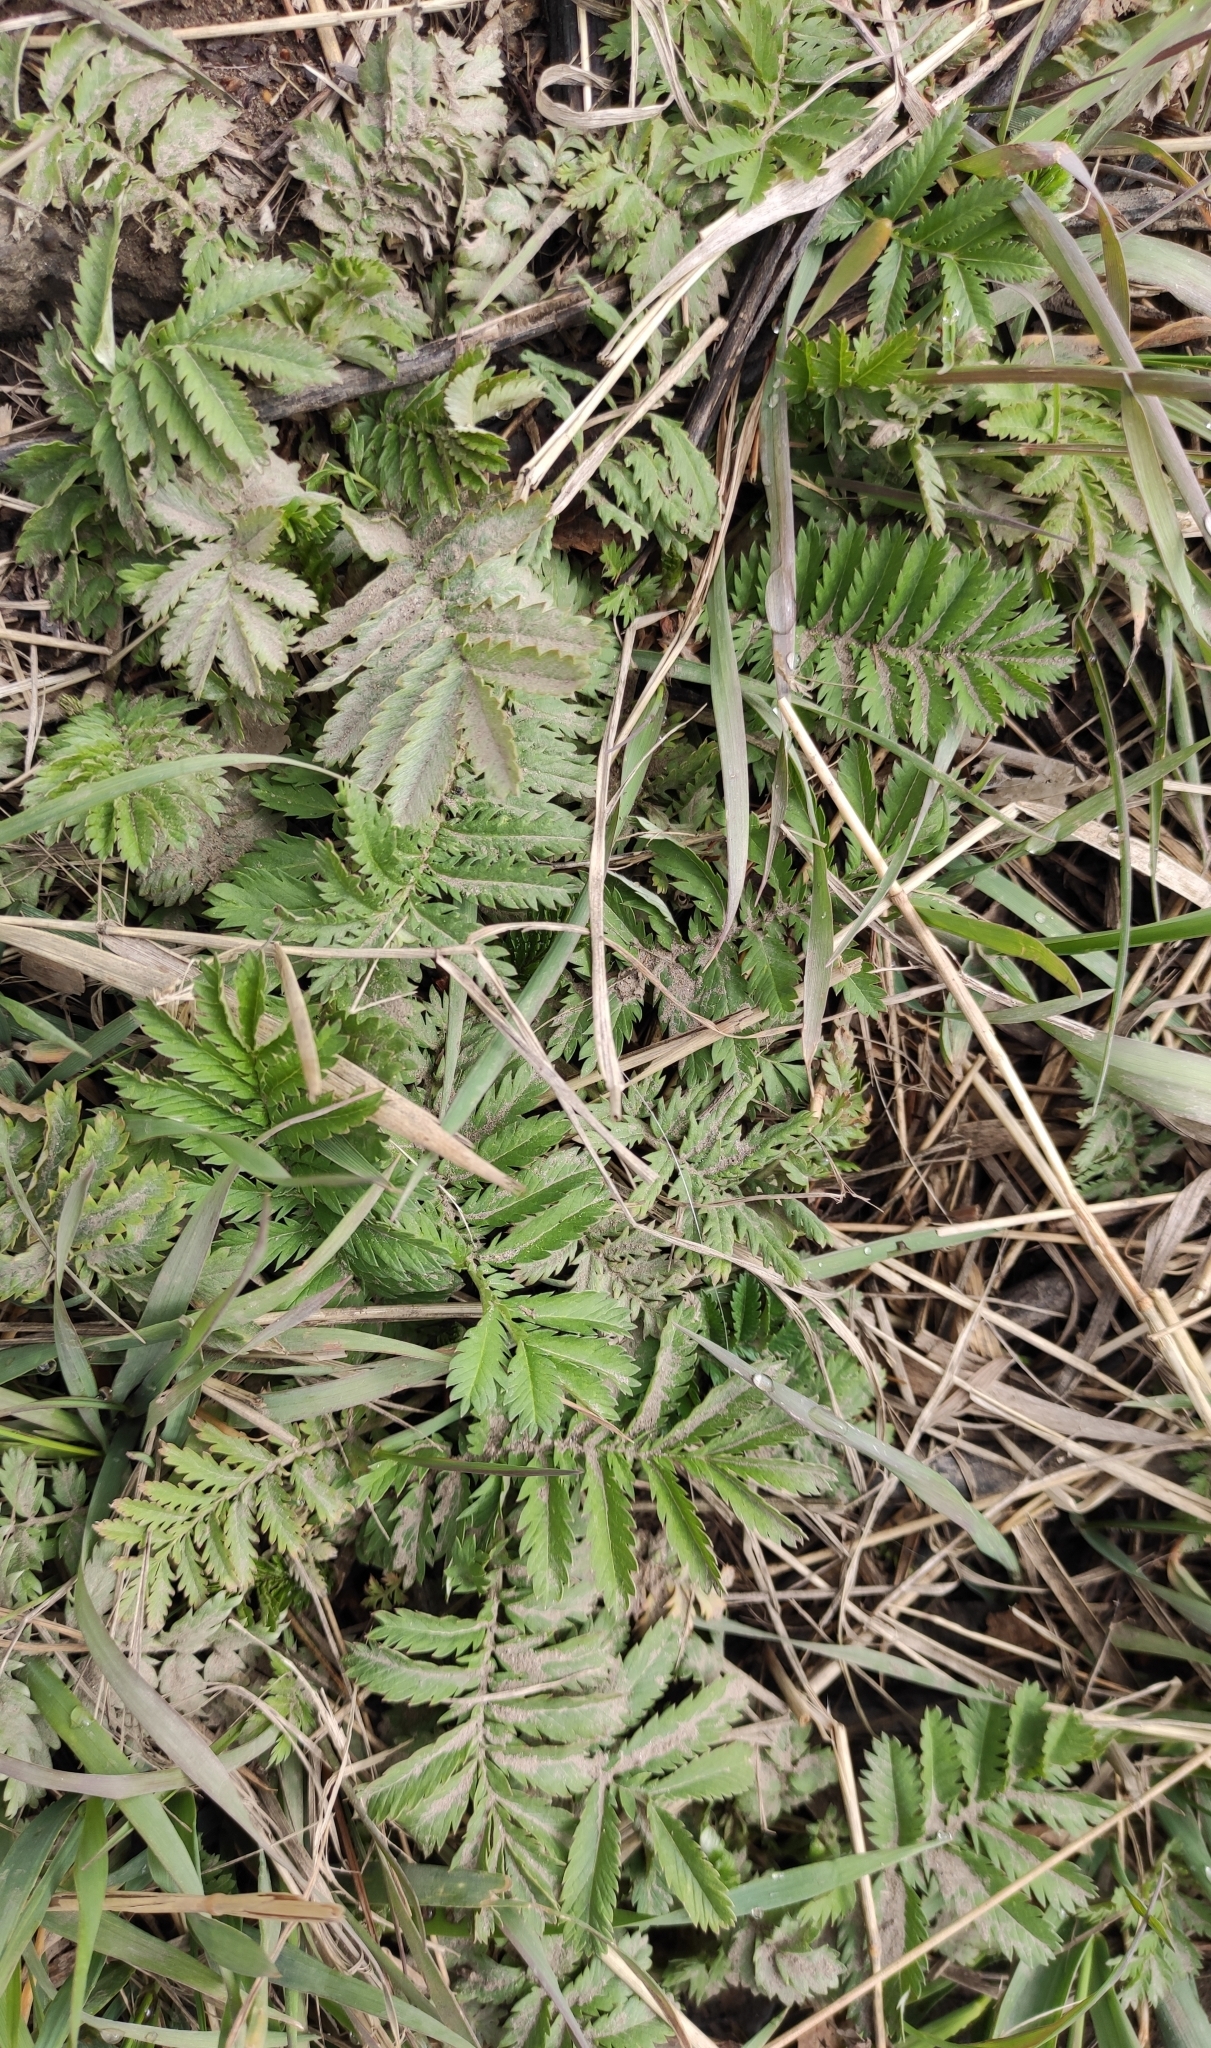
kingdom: Plantae
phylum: Tracheophyta
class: Magnoliopsida
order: Rosales
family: Rosaceae
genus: Argentina
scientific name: Argentina anserina
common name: Common silverweed
